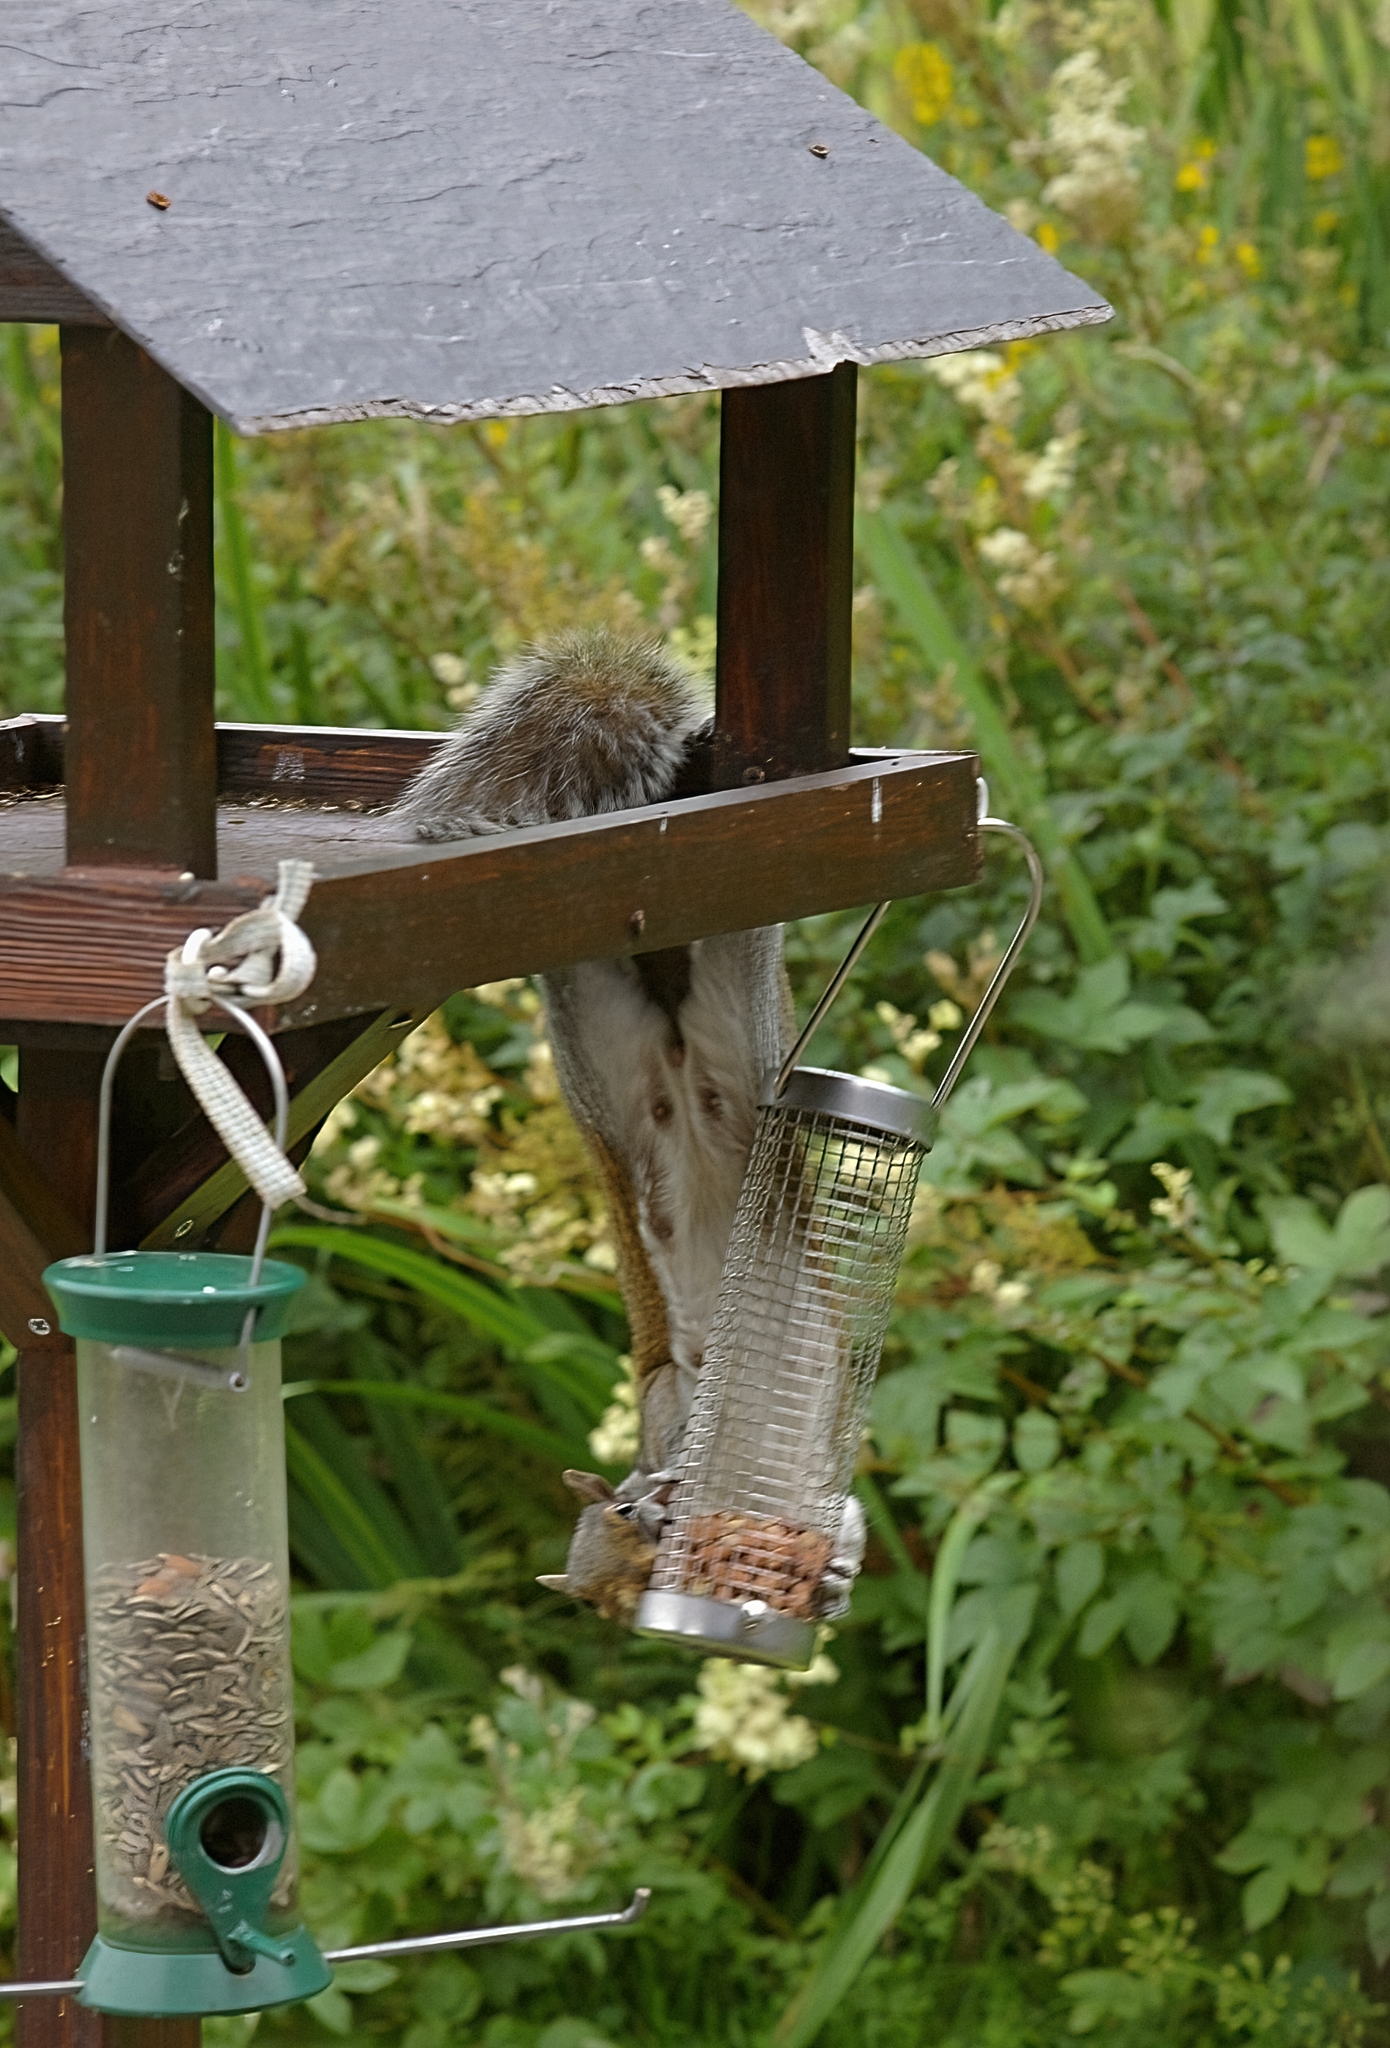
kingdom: Animalia
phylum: Chordata
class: Mammalia
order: Rodentia
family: Sciuridae
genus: Sciurus
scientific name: Sciurus carolinensis
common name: Eastern gray squirrel
